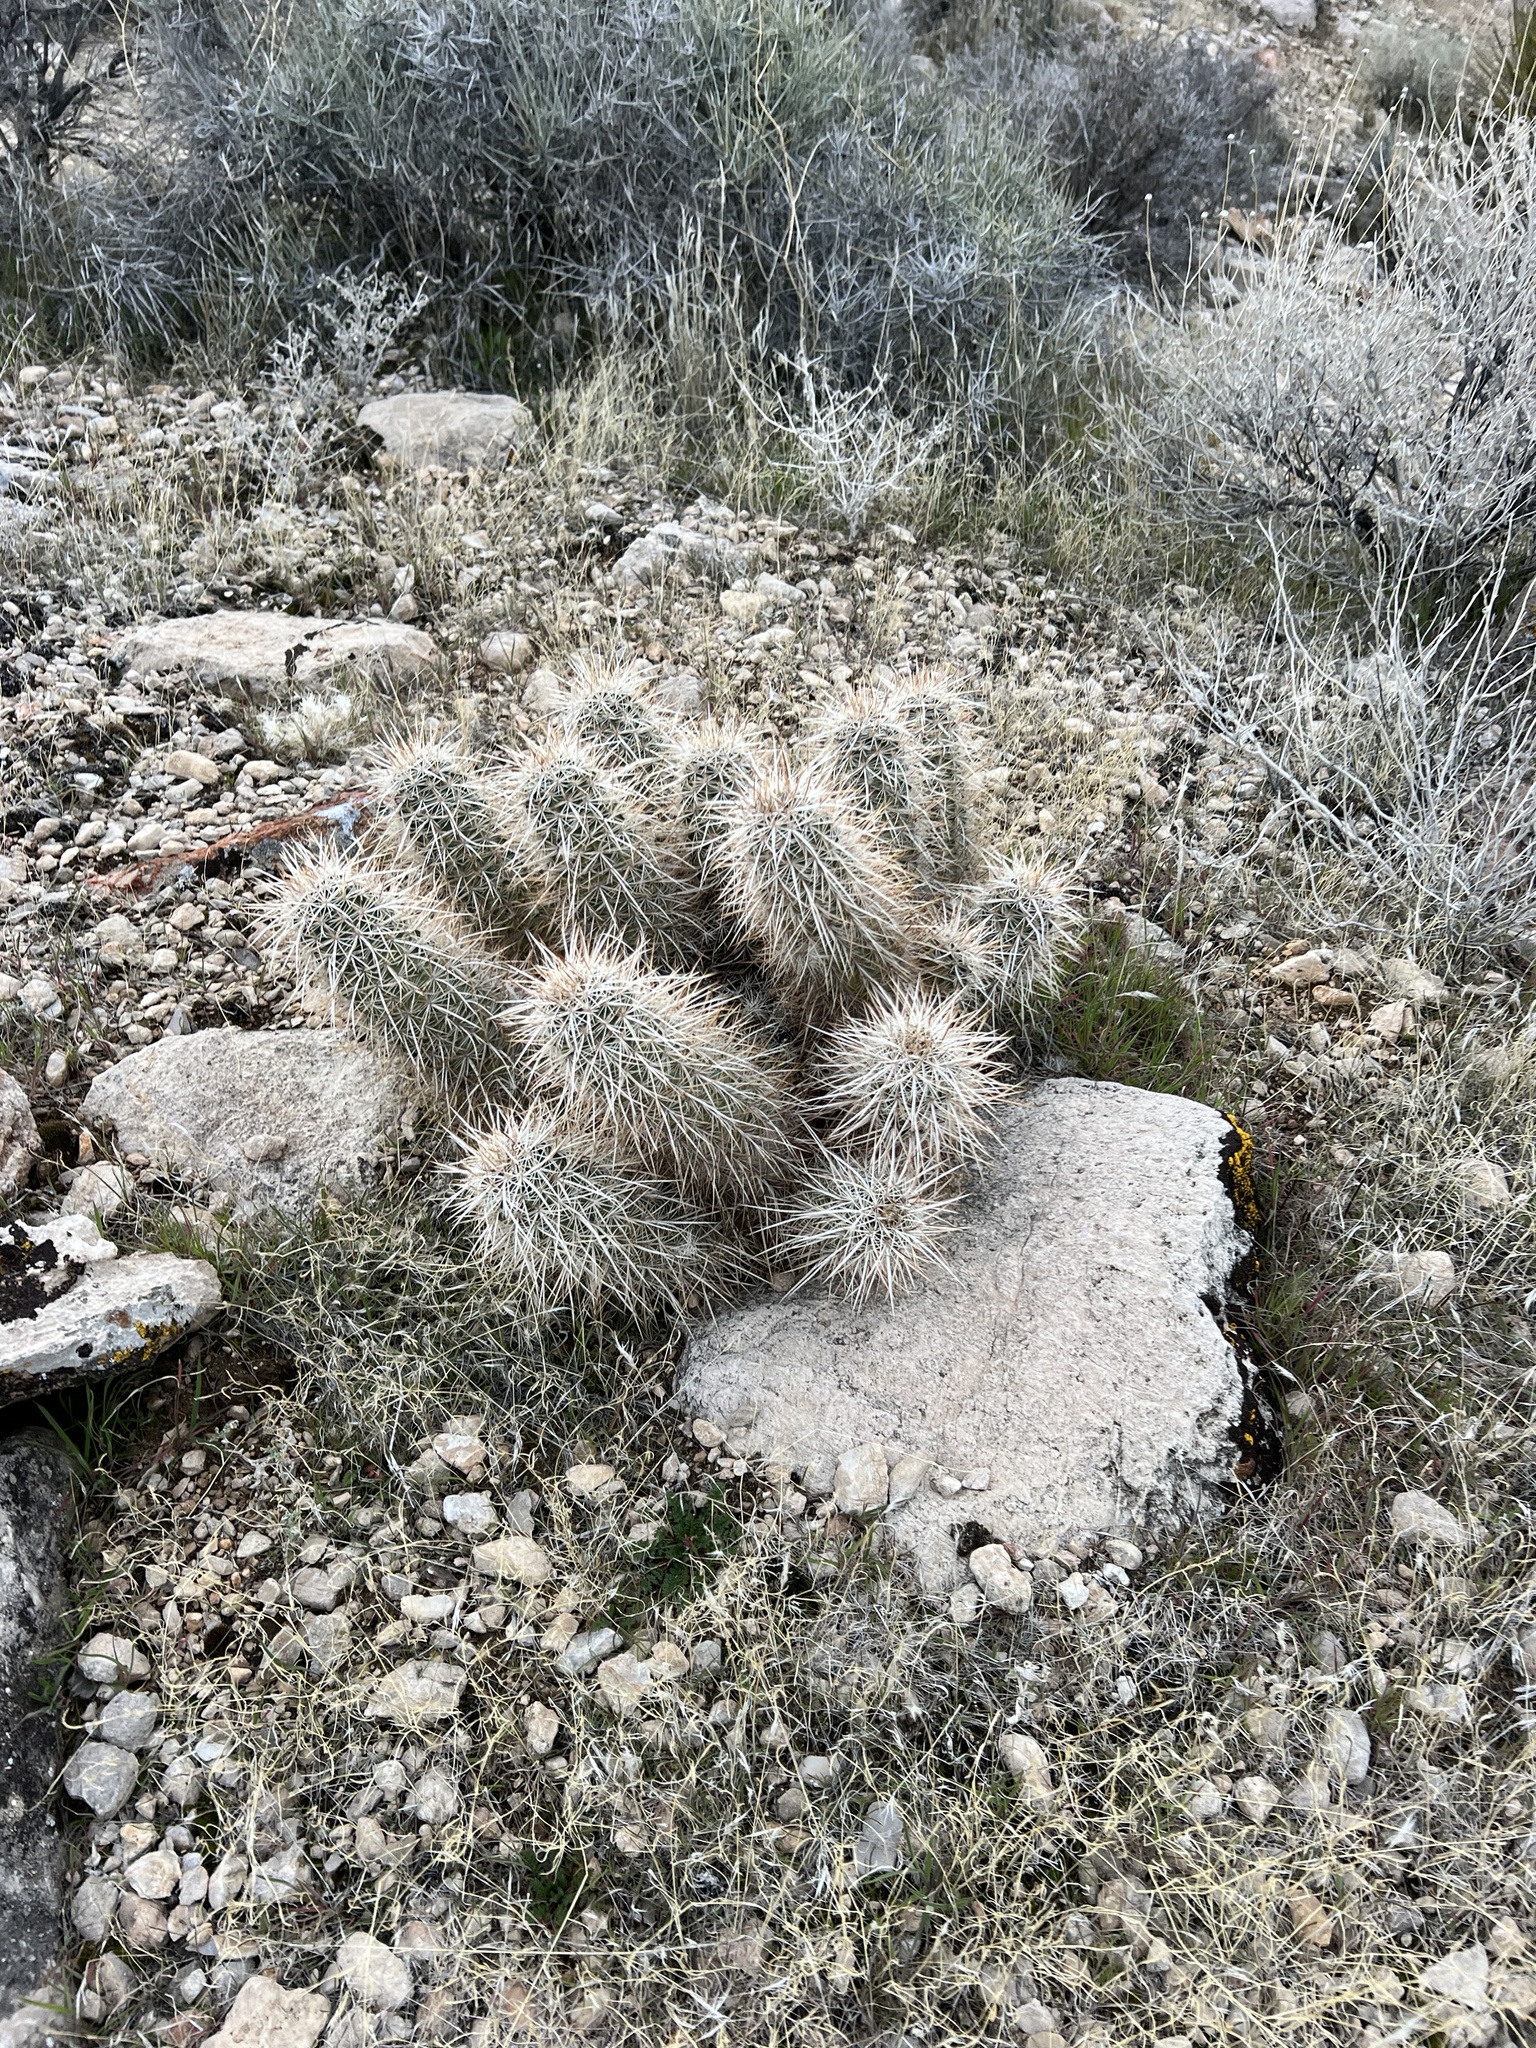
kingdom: Plantae
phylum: Tracheophyta
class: Magnoliopsida
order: Caryophyllales
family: Cactaceae
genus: Echinocereus
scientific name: Echinocereus engelmannii
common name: Engelmann's hedgehog cactus
